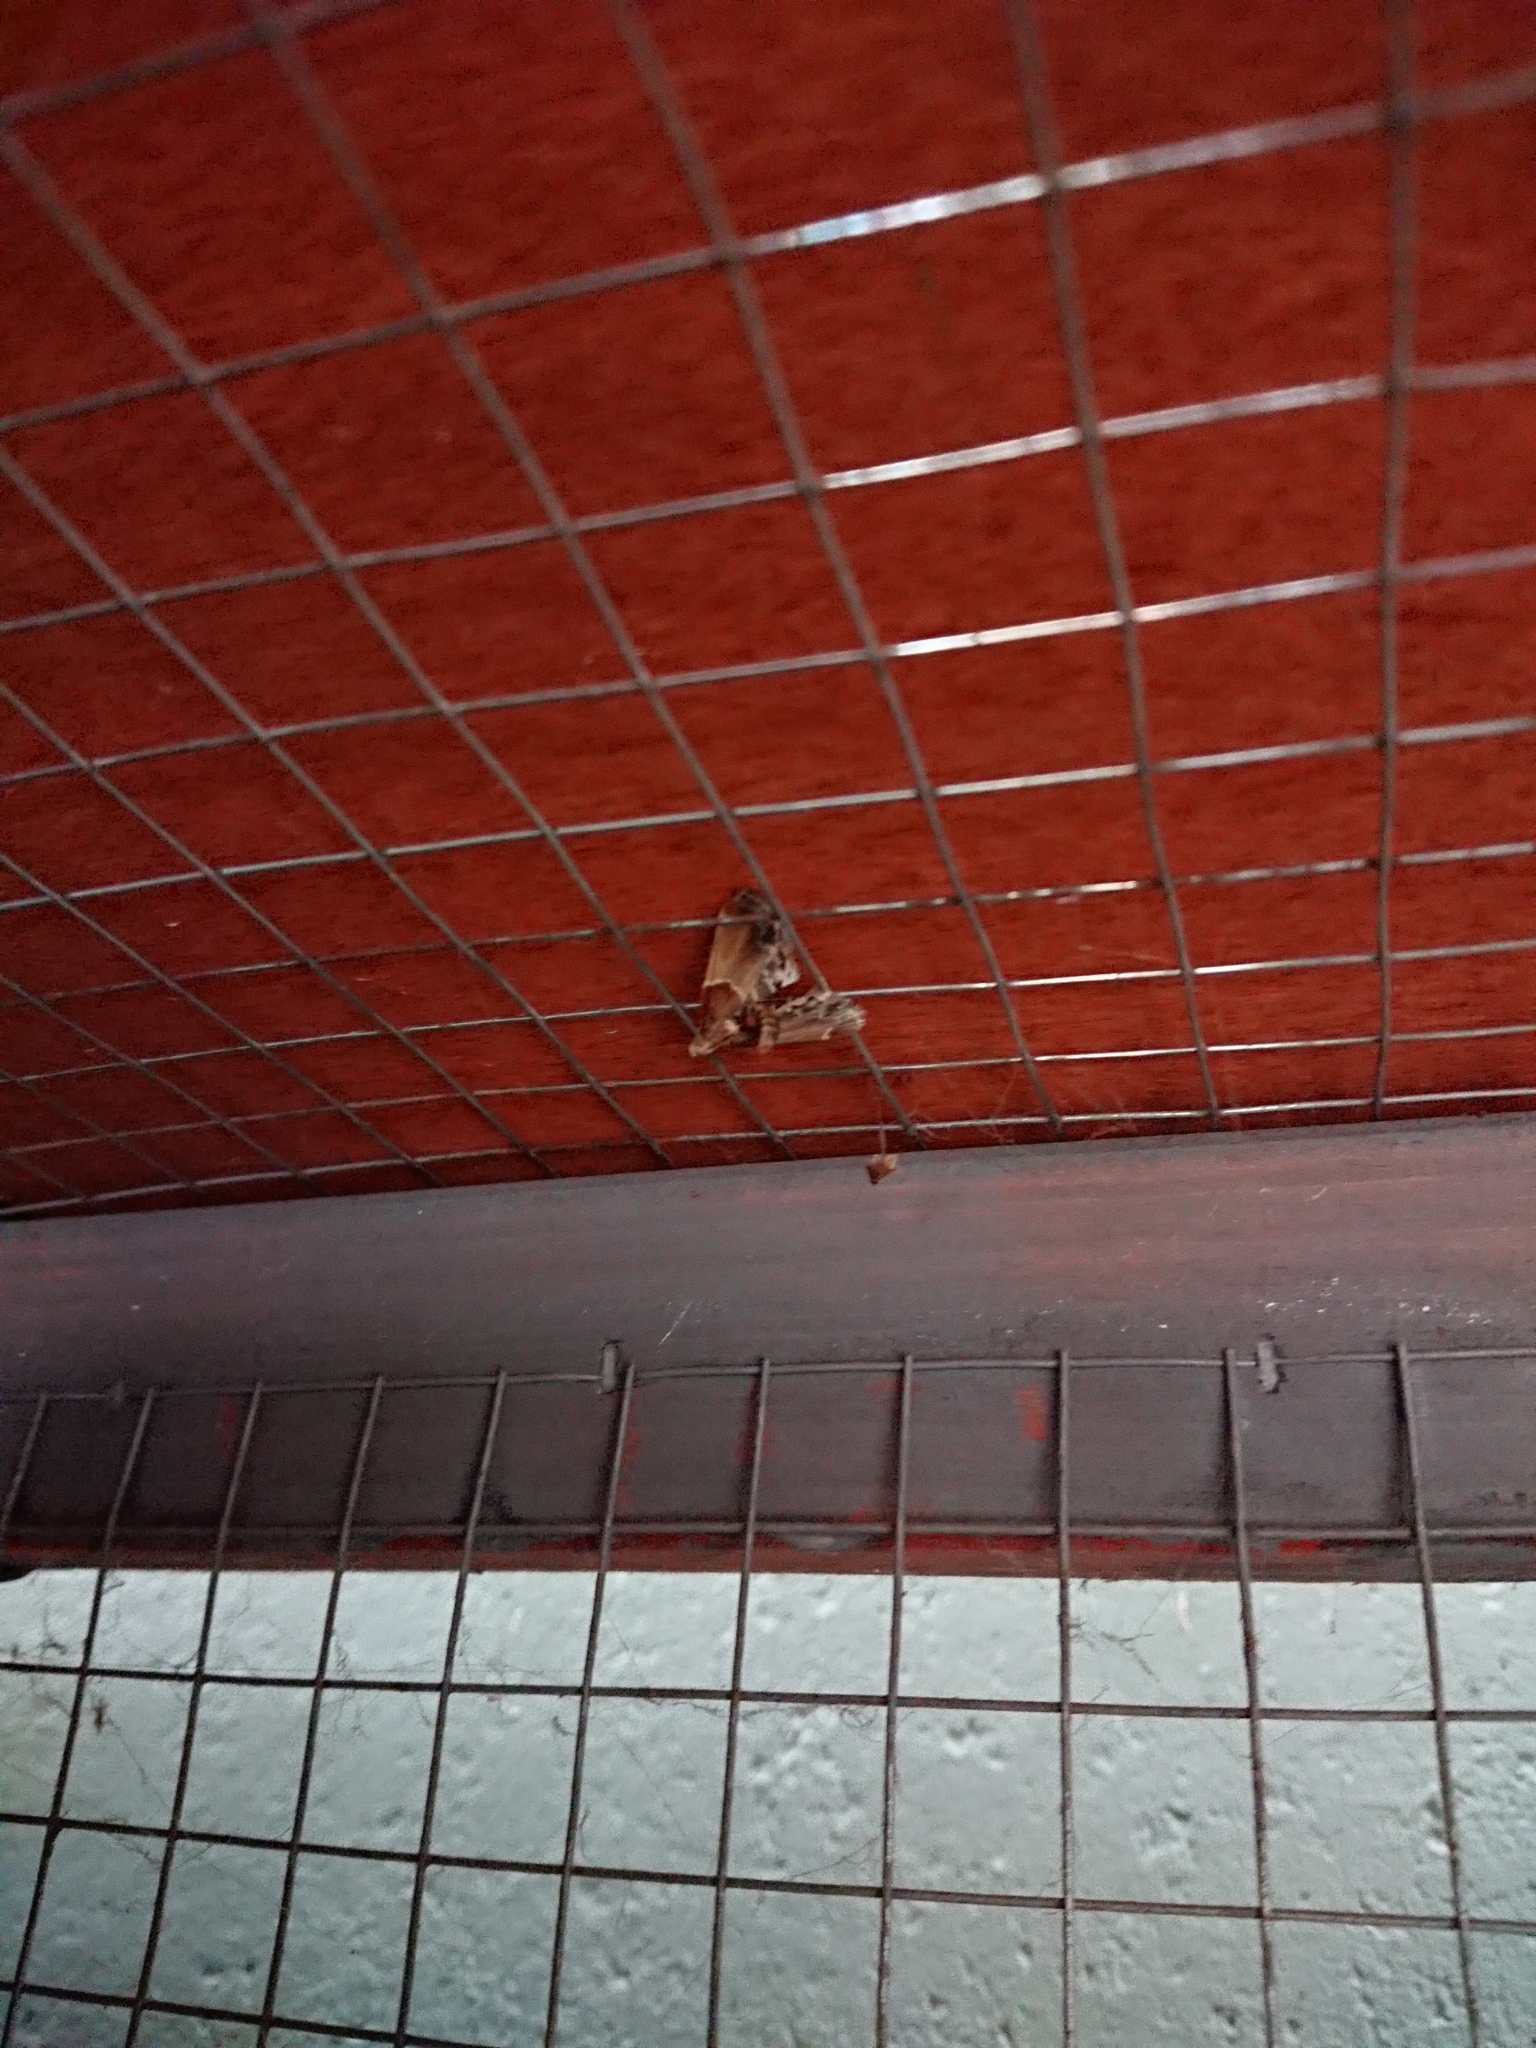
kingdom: Animalia
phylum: Arthropoda
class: Insecta
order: Lepidoptera
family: Pyralidae
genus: Pyralis
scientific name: Pyralis farinalis
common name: Meal moth
